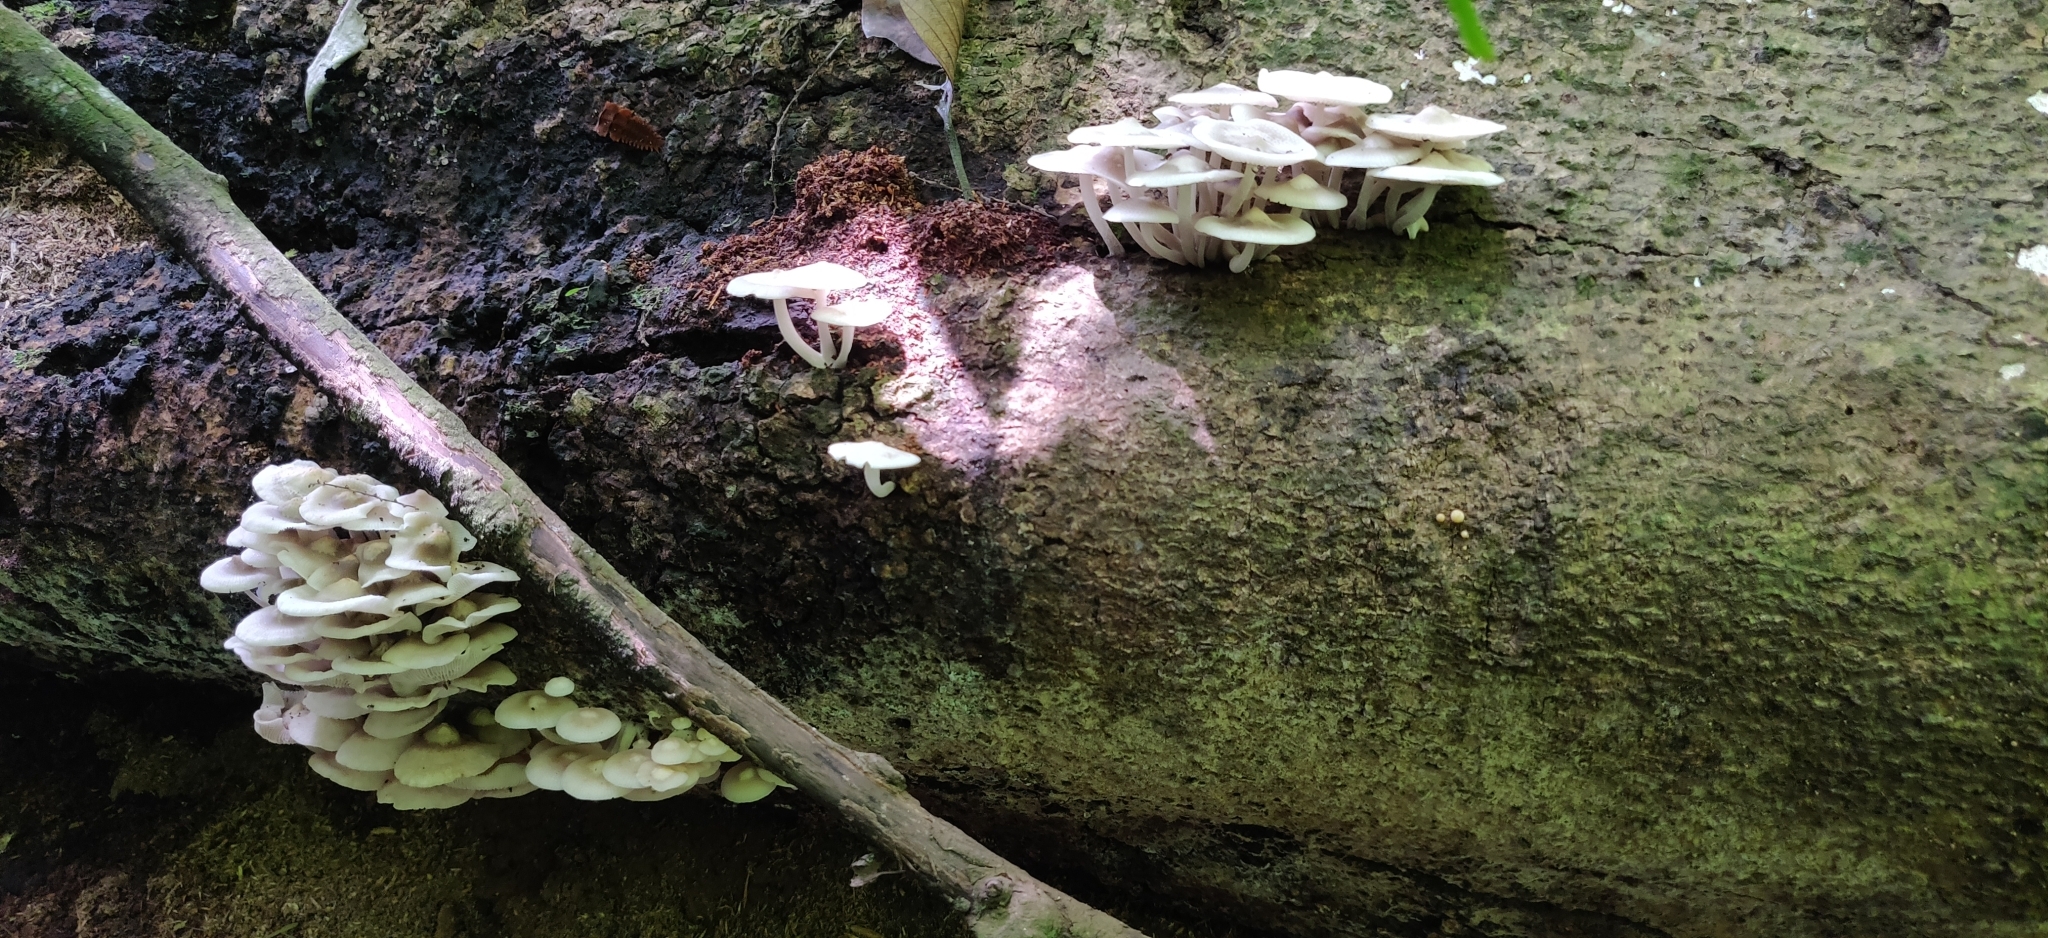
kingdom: Fungi
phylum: Basidiomycota
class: Agaricomycetes
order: Agaricales
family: Mycenaceae
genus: Filoboletus
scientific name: Filoboletus manipularis
